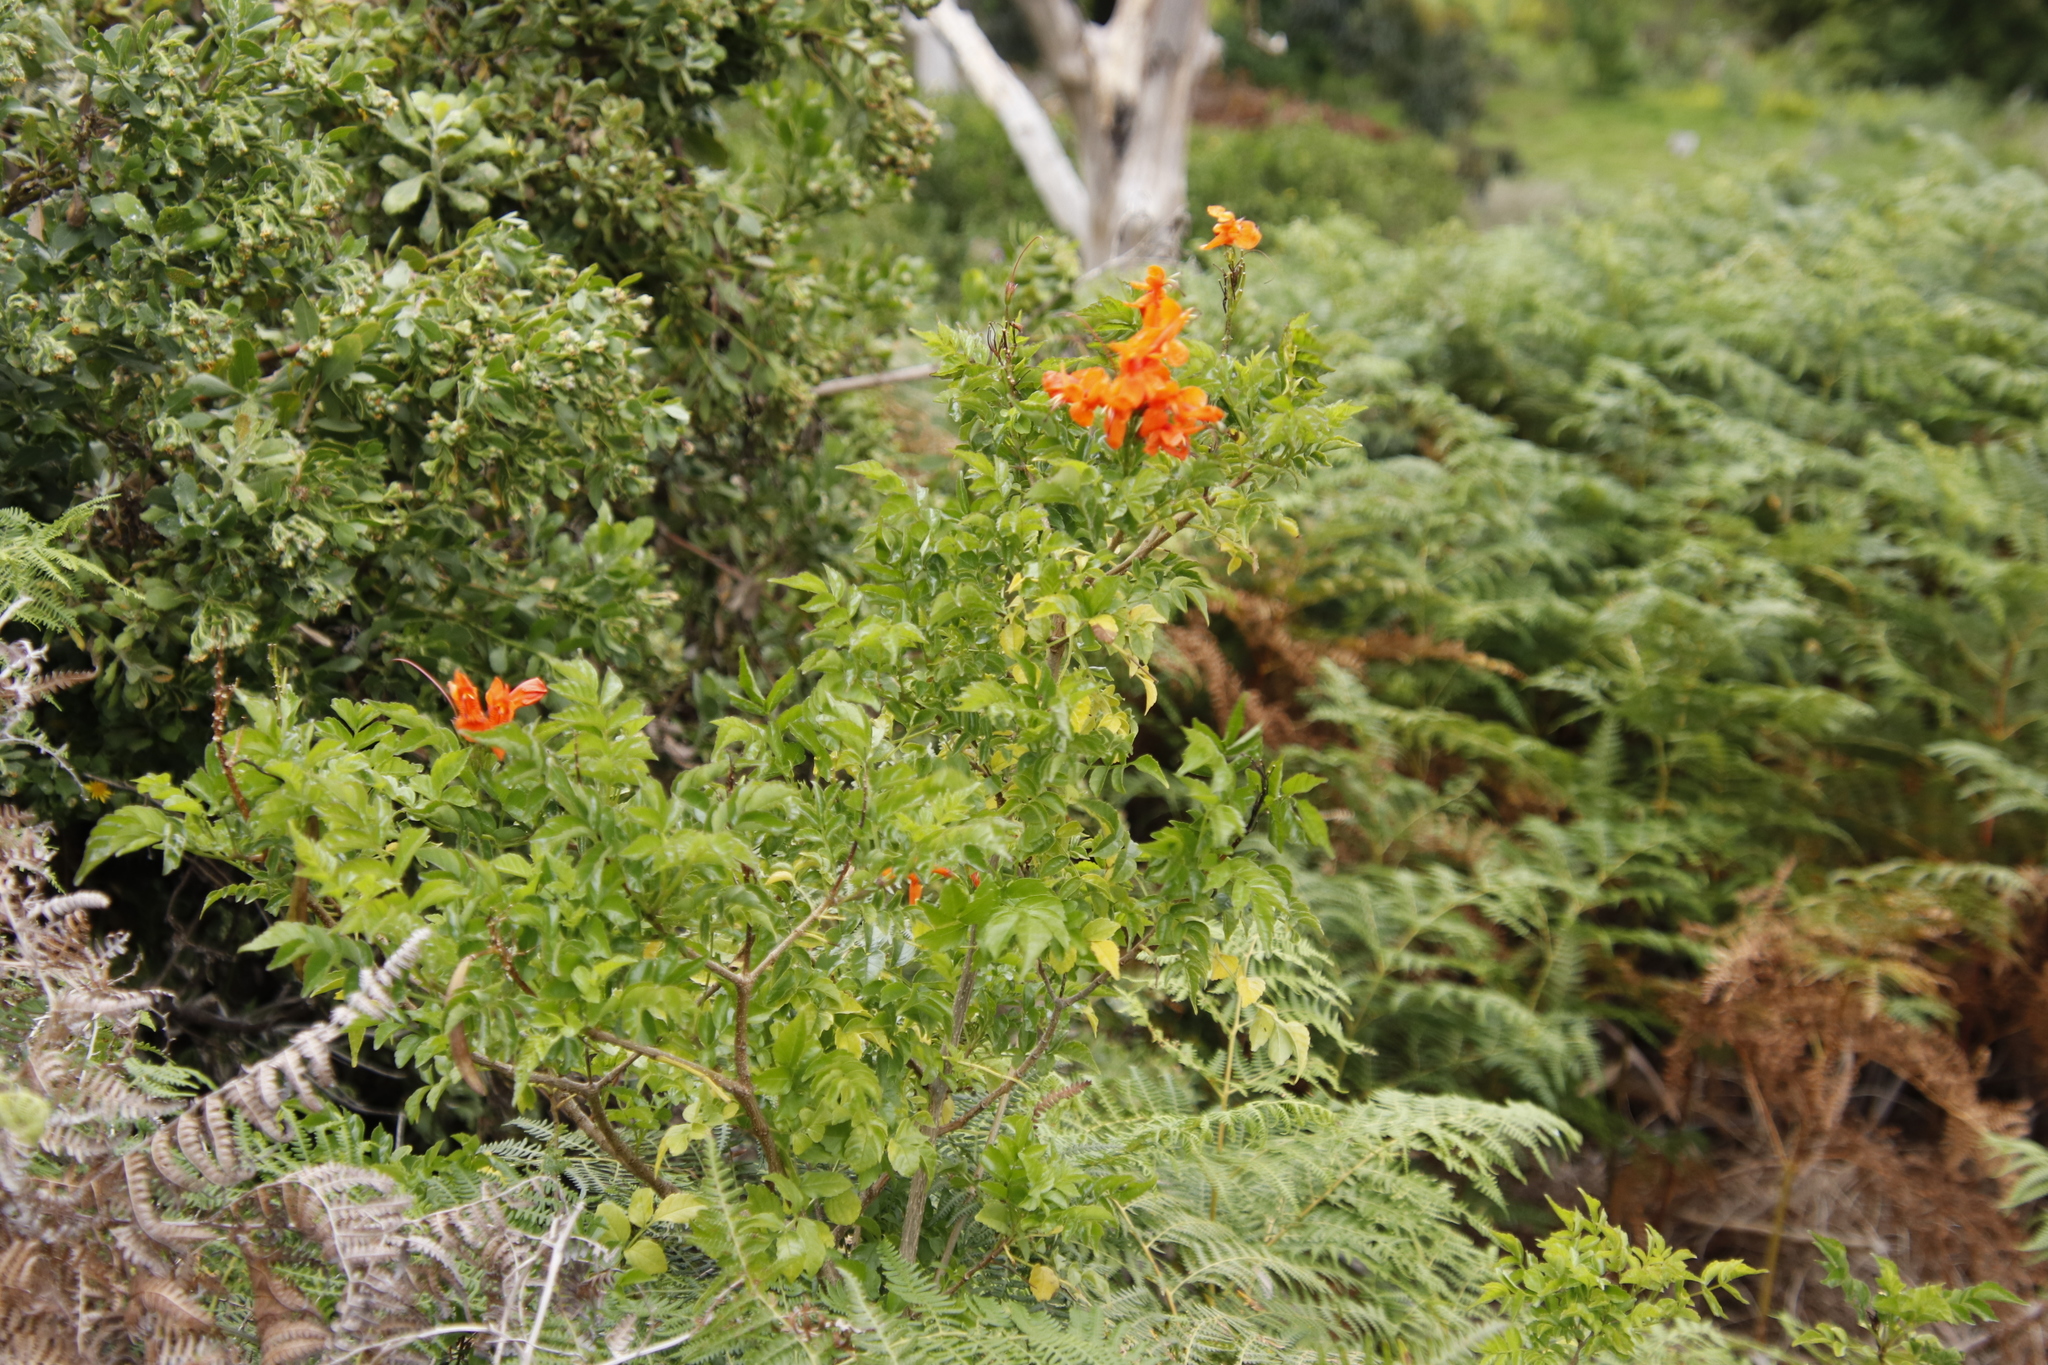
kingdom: Plantae
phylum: Tracheophyta
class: Magnoliopsida
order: Lamiales
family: Bignoniaceae
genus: Tecomaria
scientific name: Tecomaria capensis
